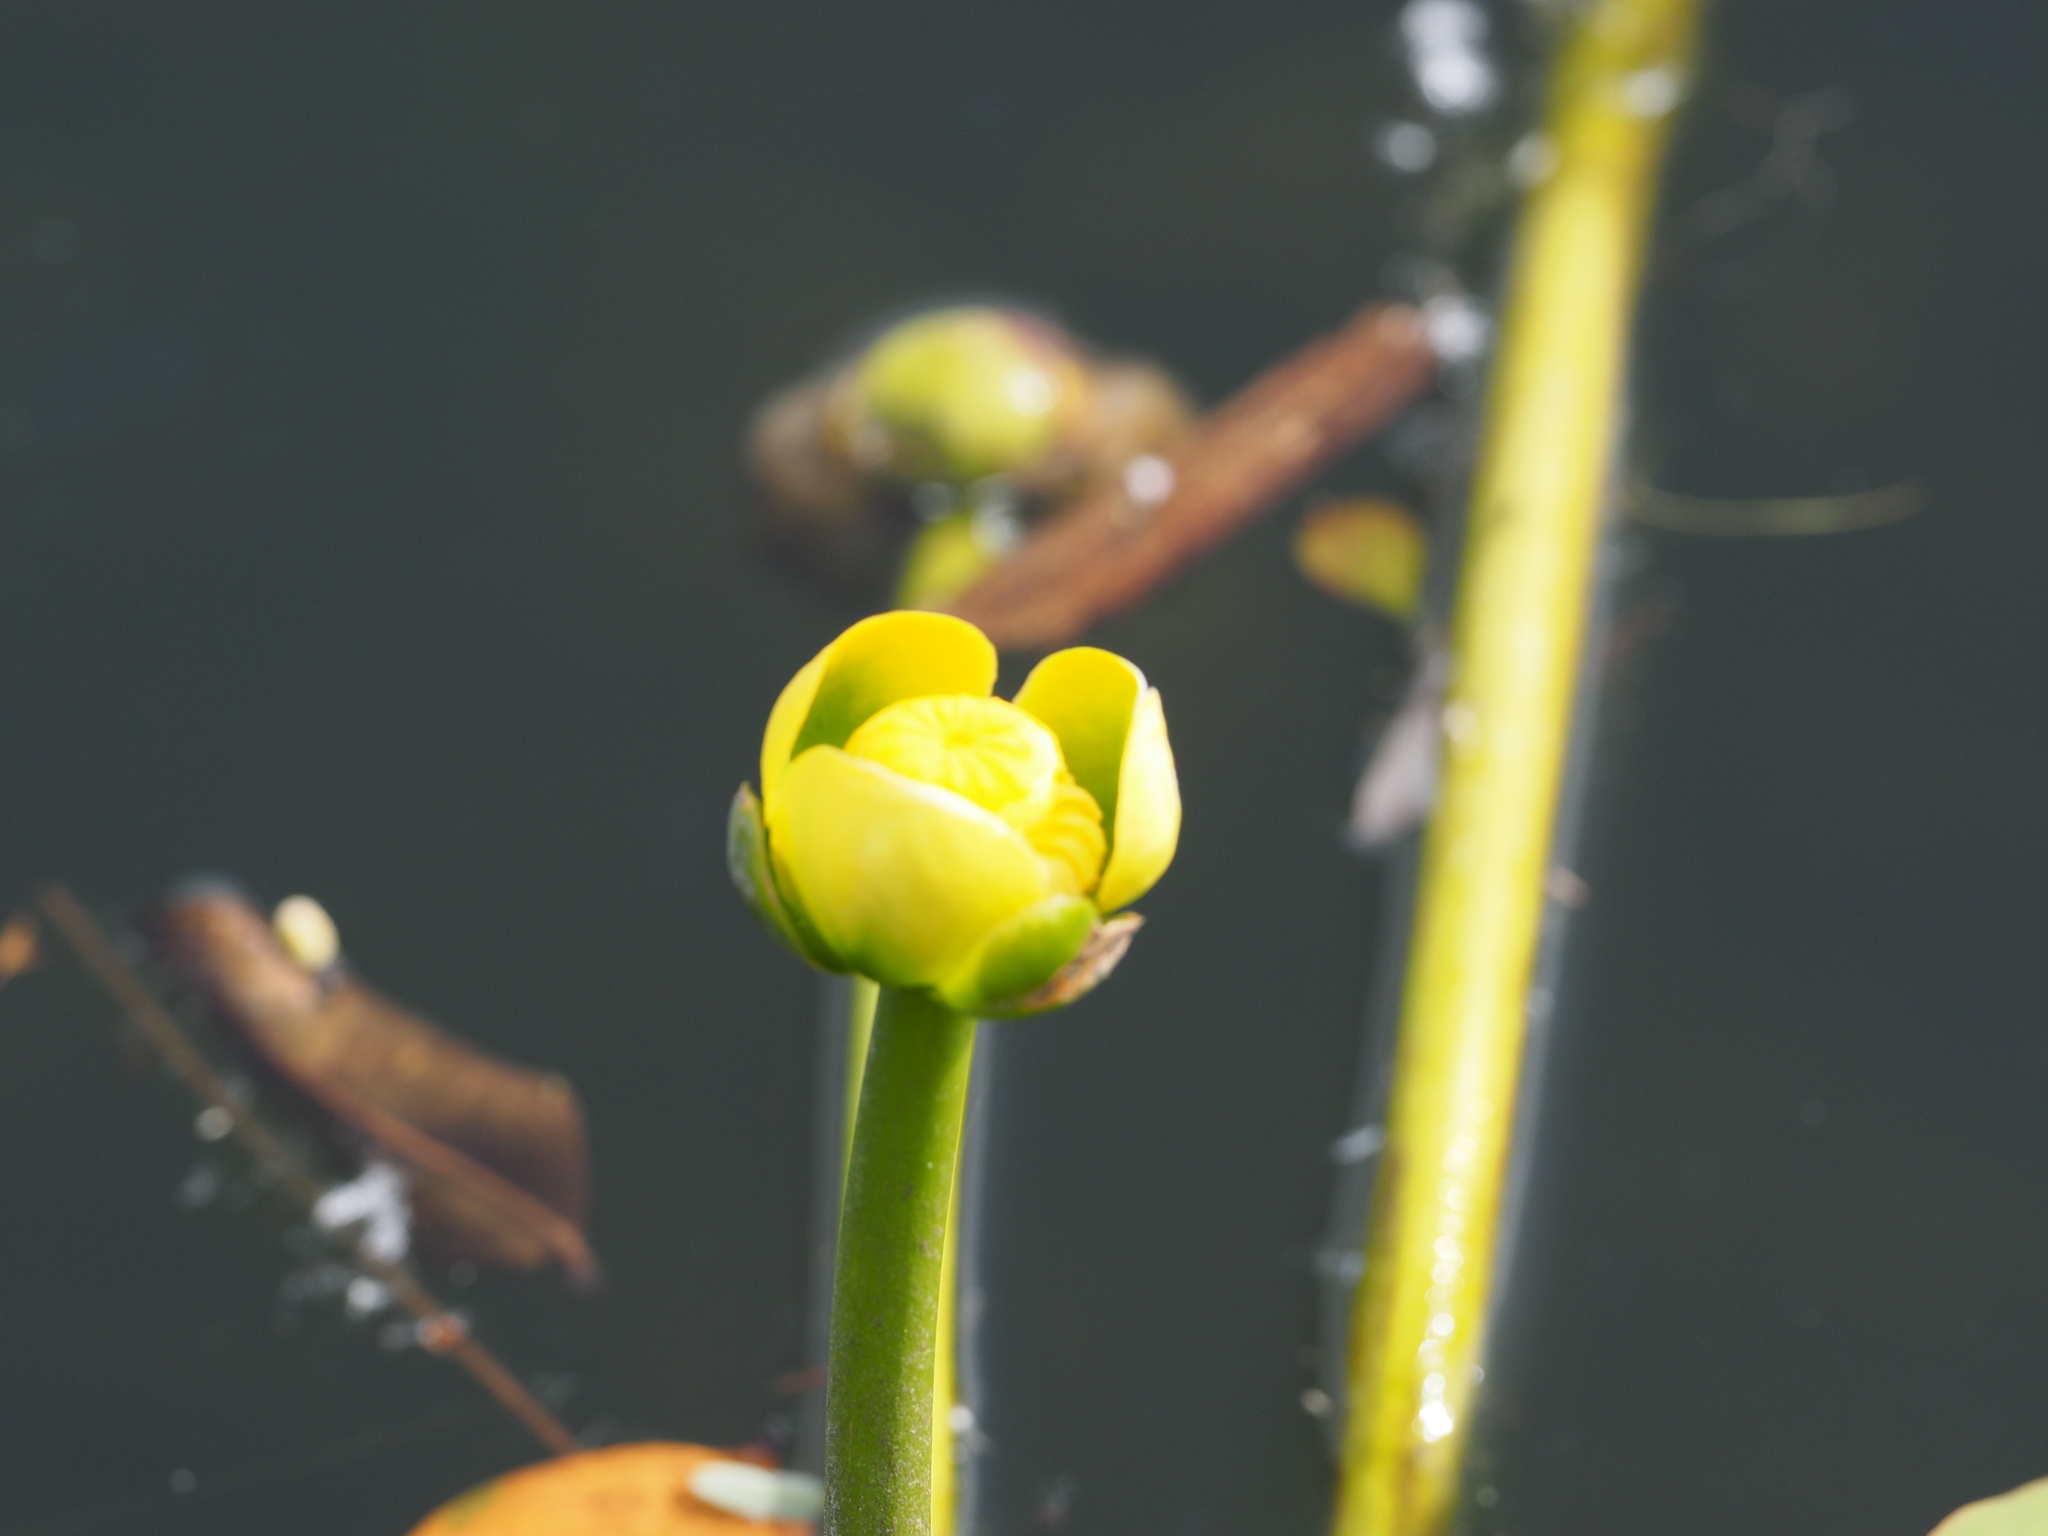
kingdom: Plantae
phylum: Tracheophyta
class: Magnoliopsida
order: Nymphaeales
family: Nymphaeaceae
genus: Nuphar
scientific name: Nuphar advena
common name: Spatter-dock
